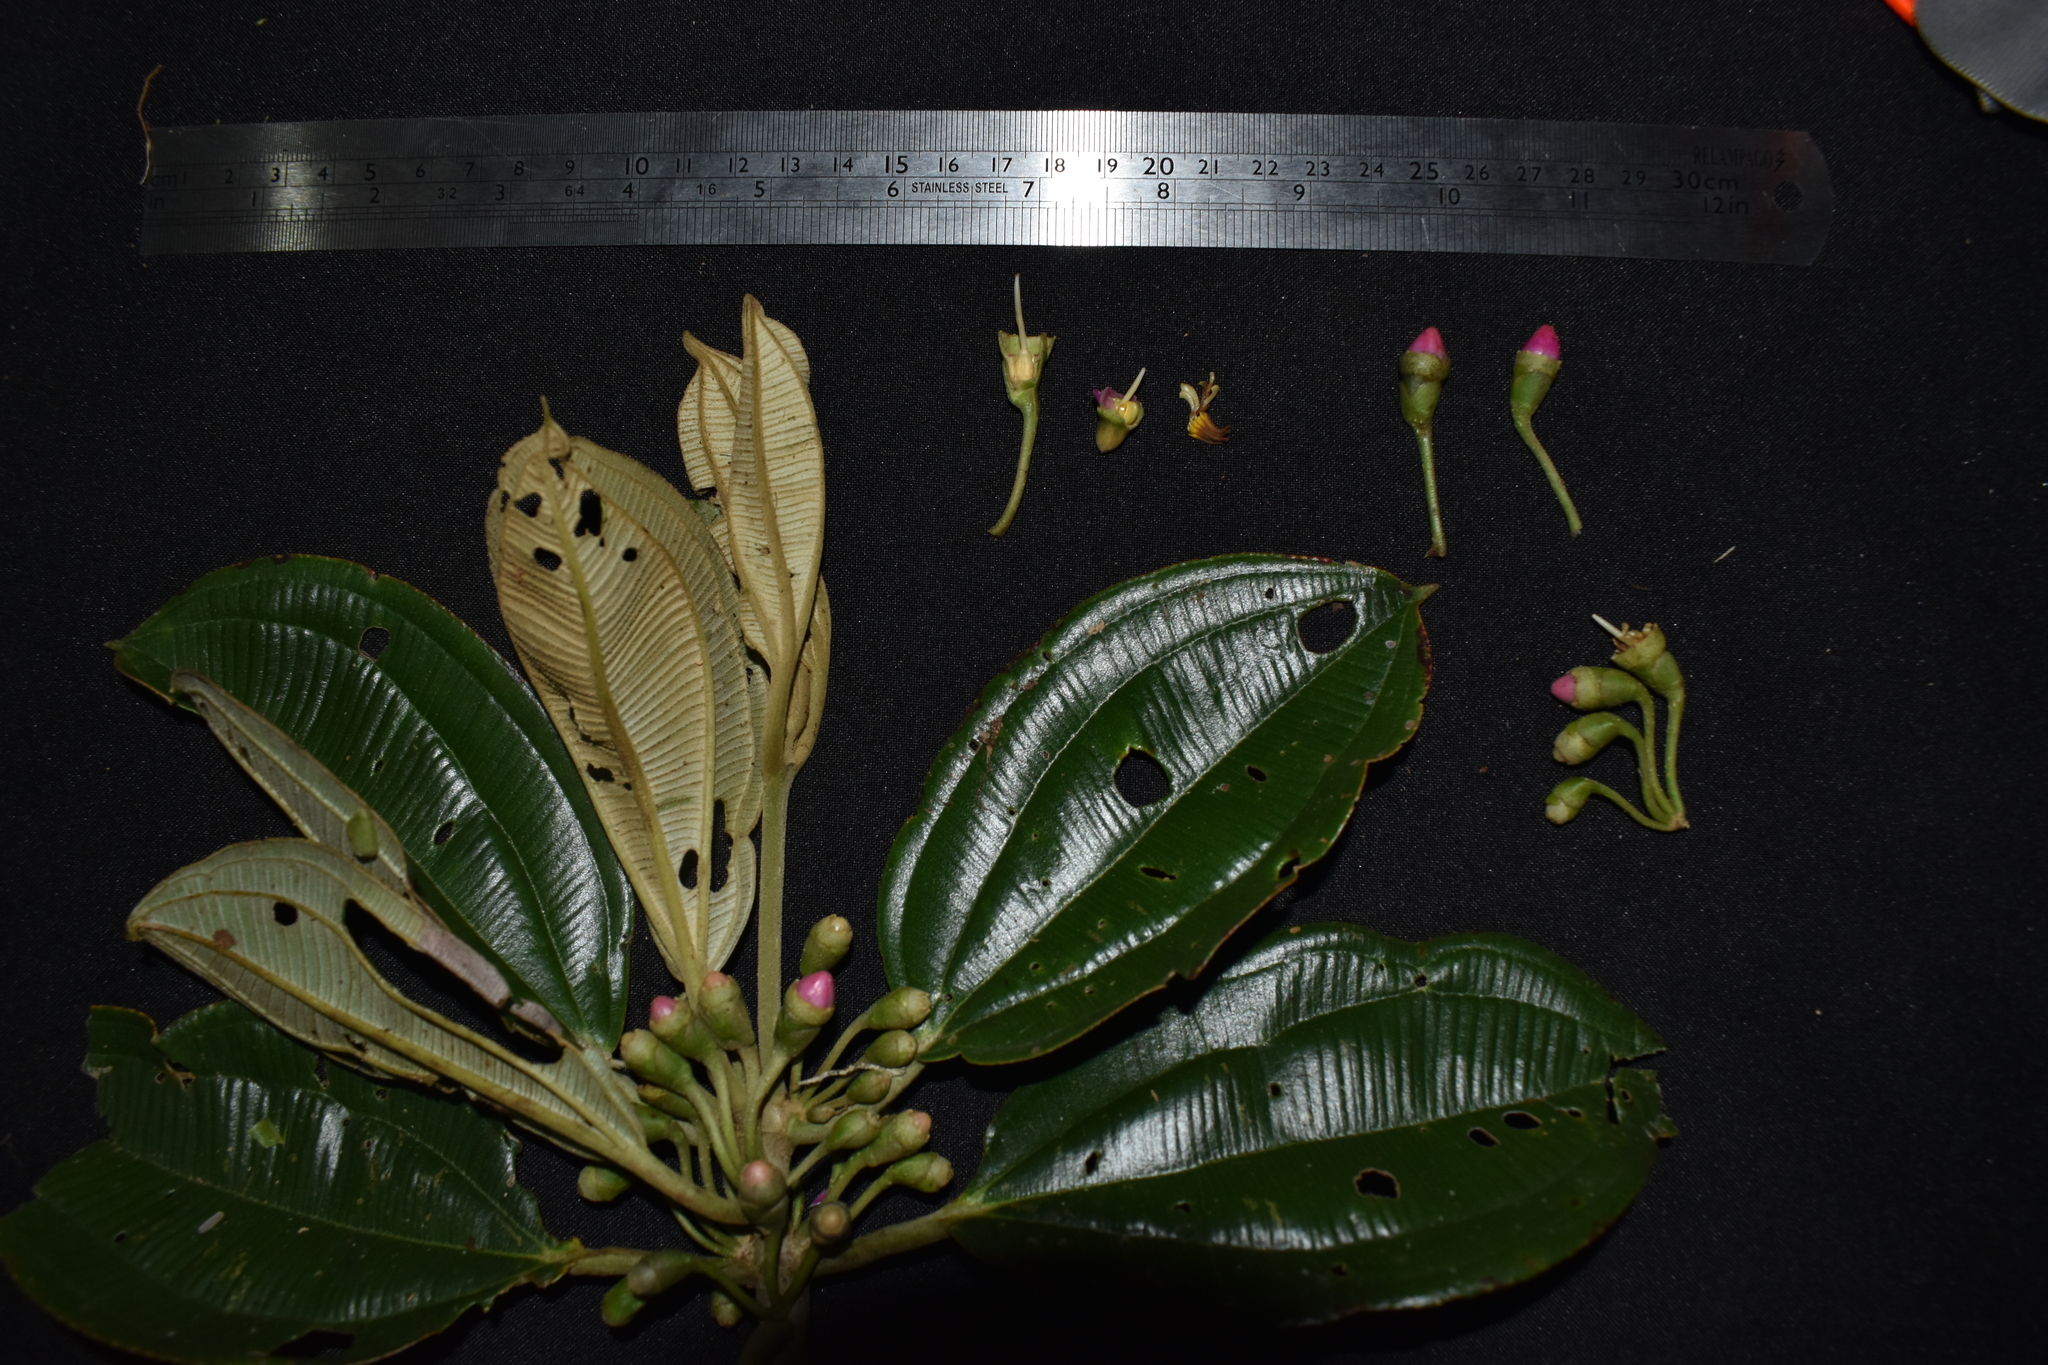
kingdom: Plantae
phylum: Tracheophyta
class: Magnoliopsida
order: Myrtales
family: Melastomataceae
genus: Blakea
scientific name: Blakea multiflora
